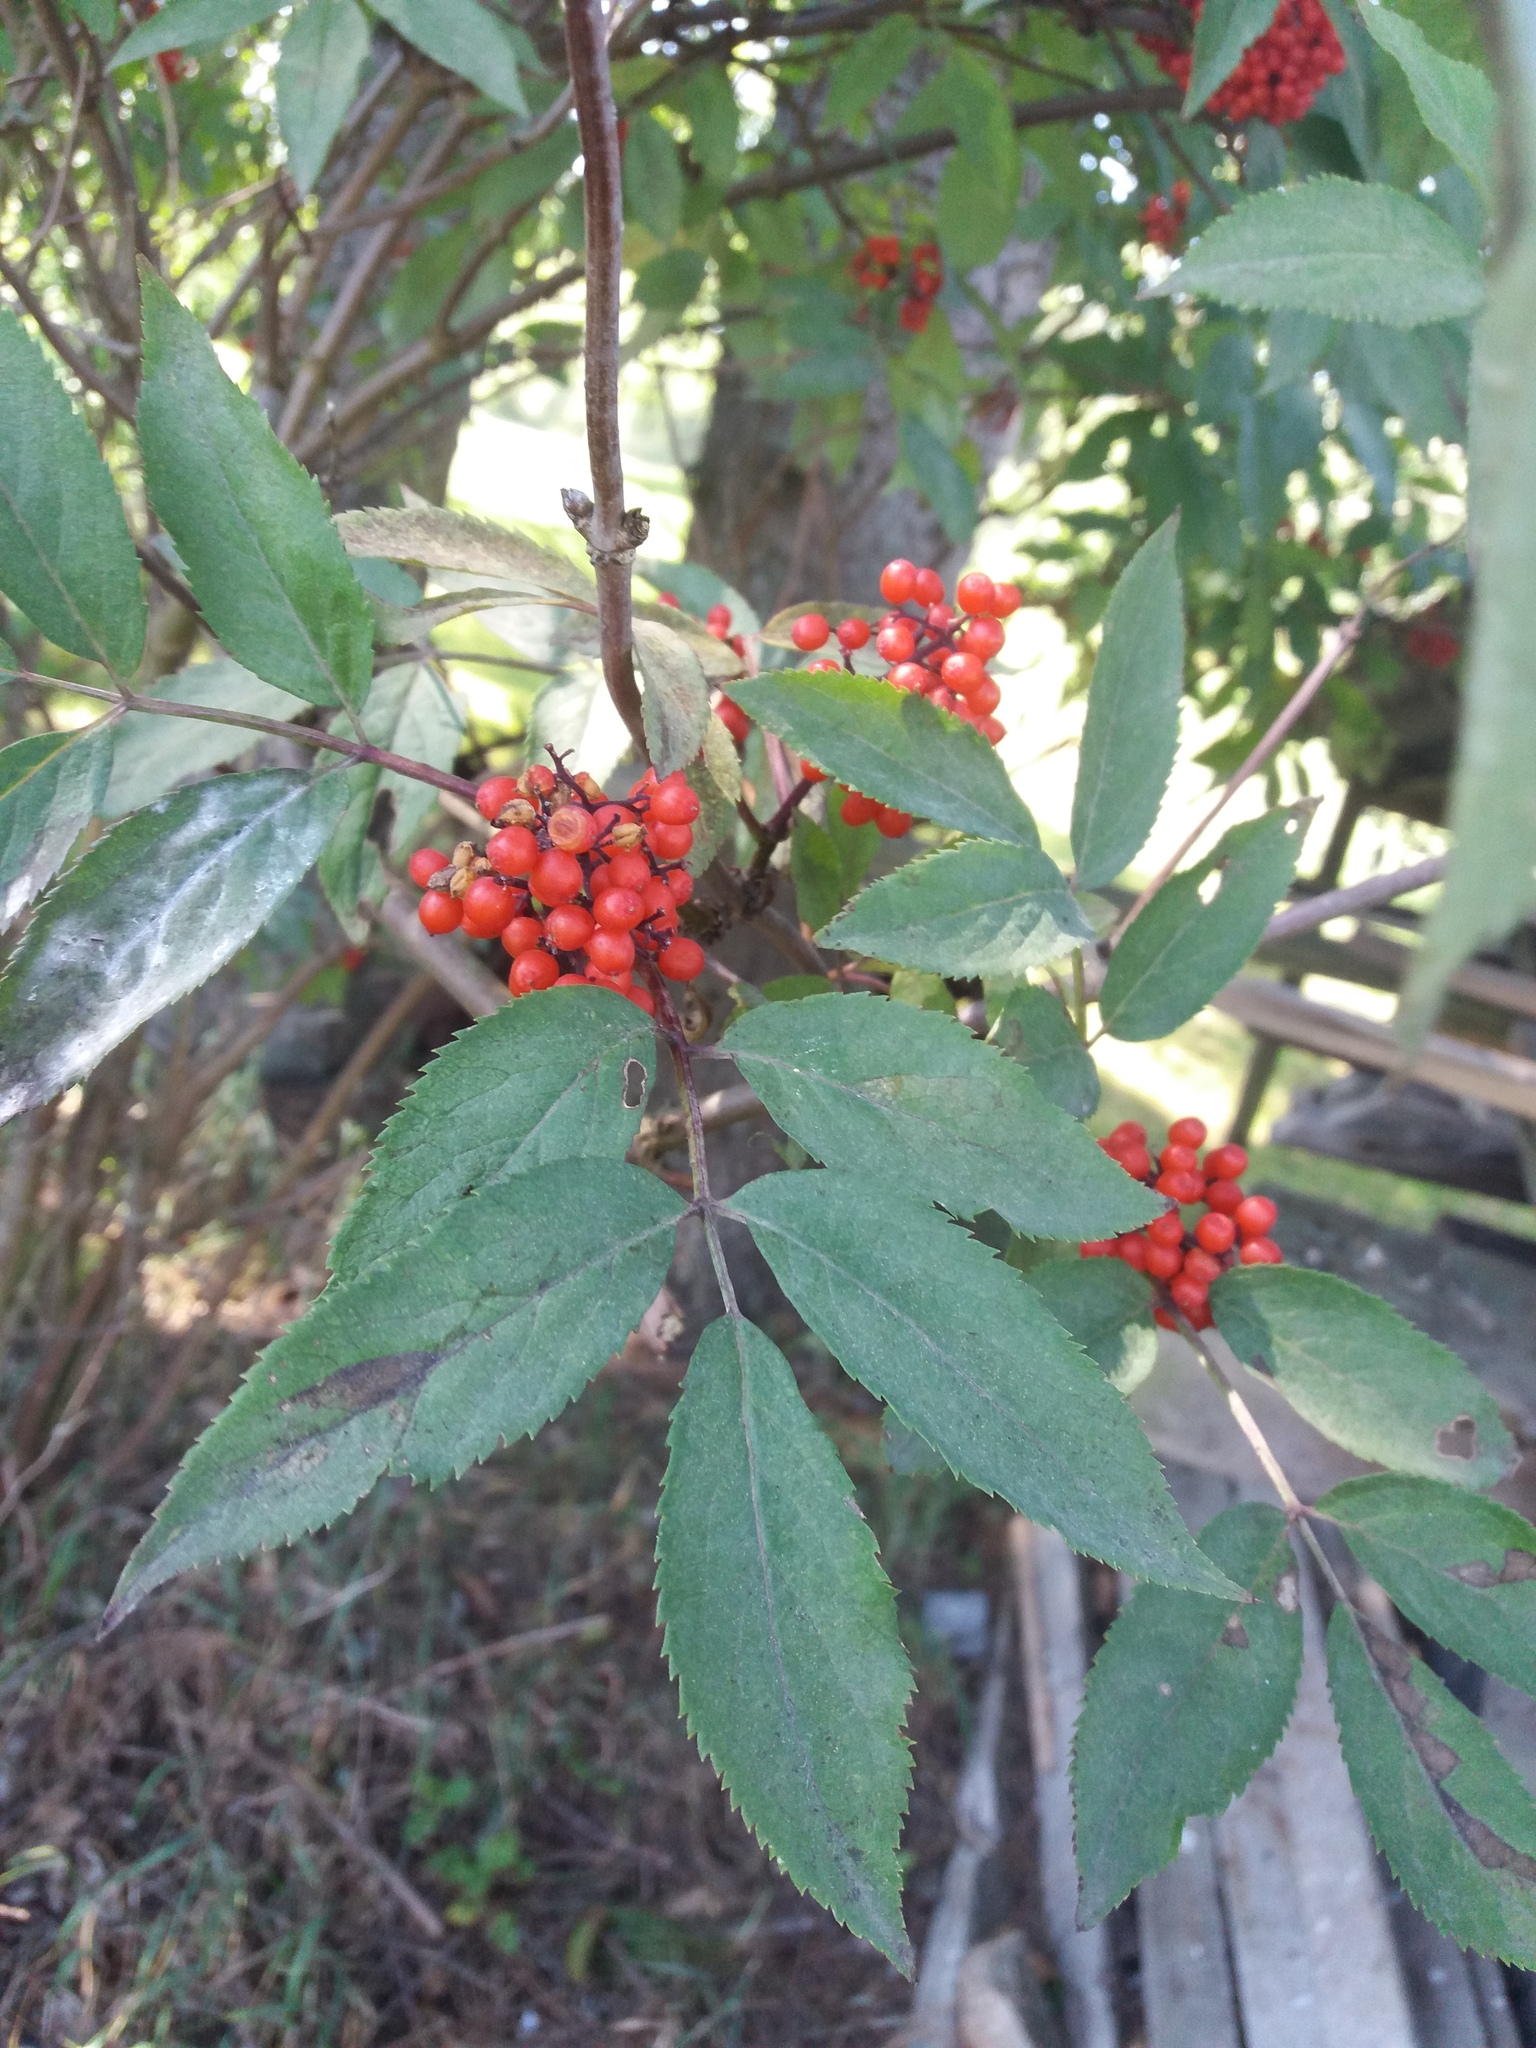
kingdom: Plantae
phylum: Tracheophyta
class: Magnoliopsida
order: Dipsacales
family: Viburnaceae
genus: Sambucus
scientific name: Sambucus racemosa
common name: Red-berried elder
